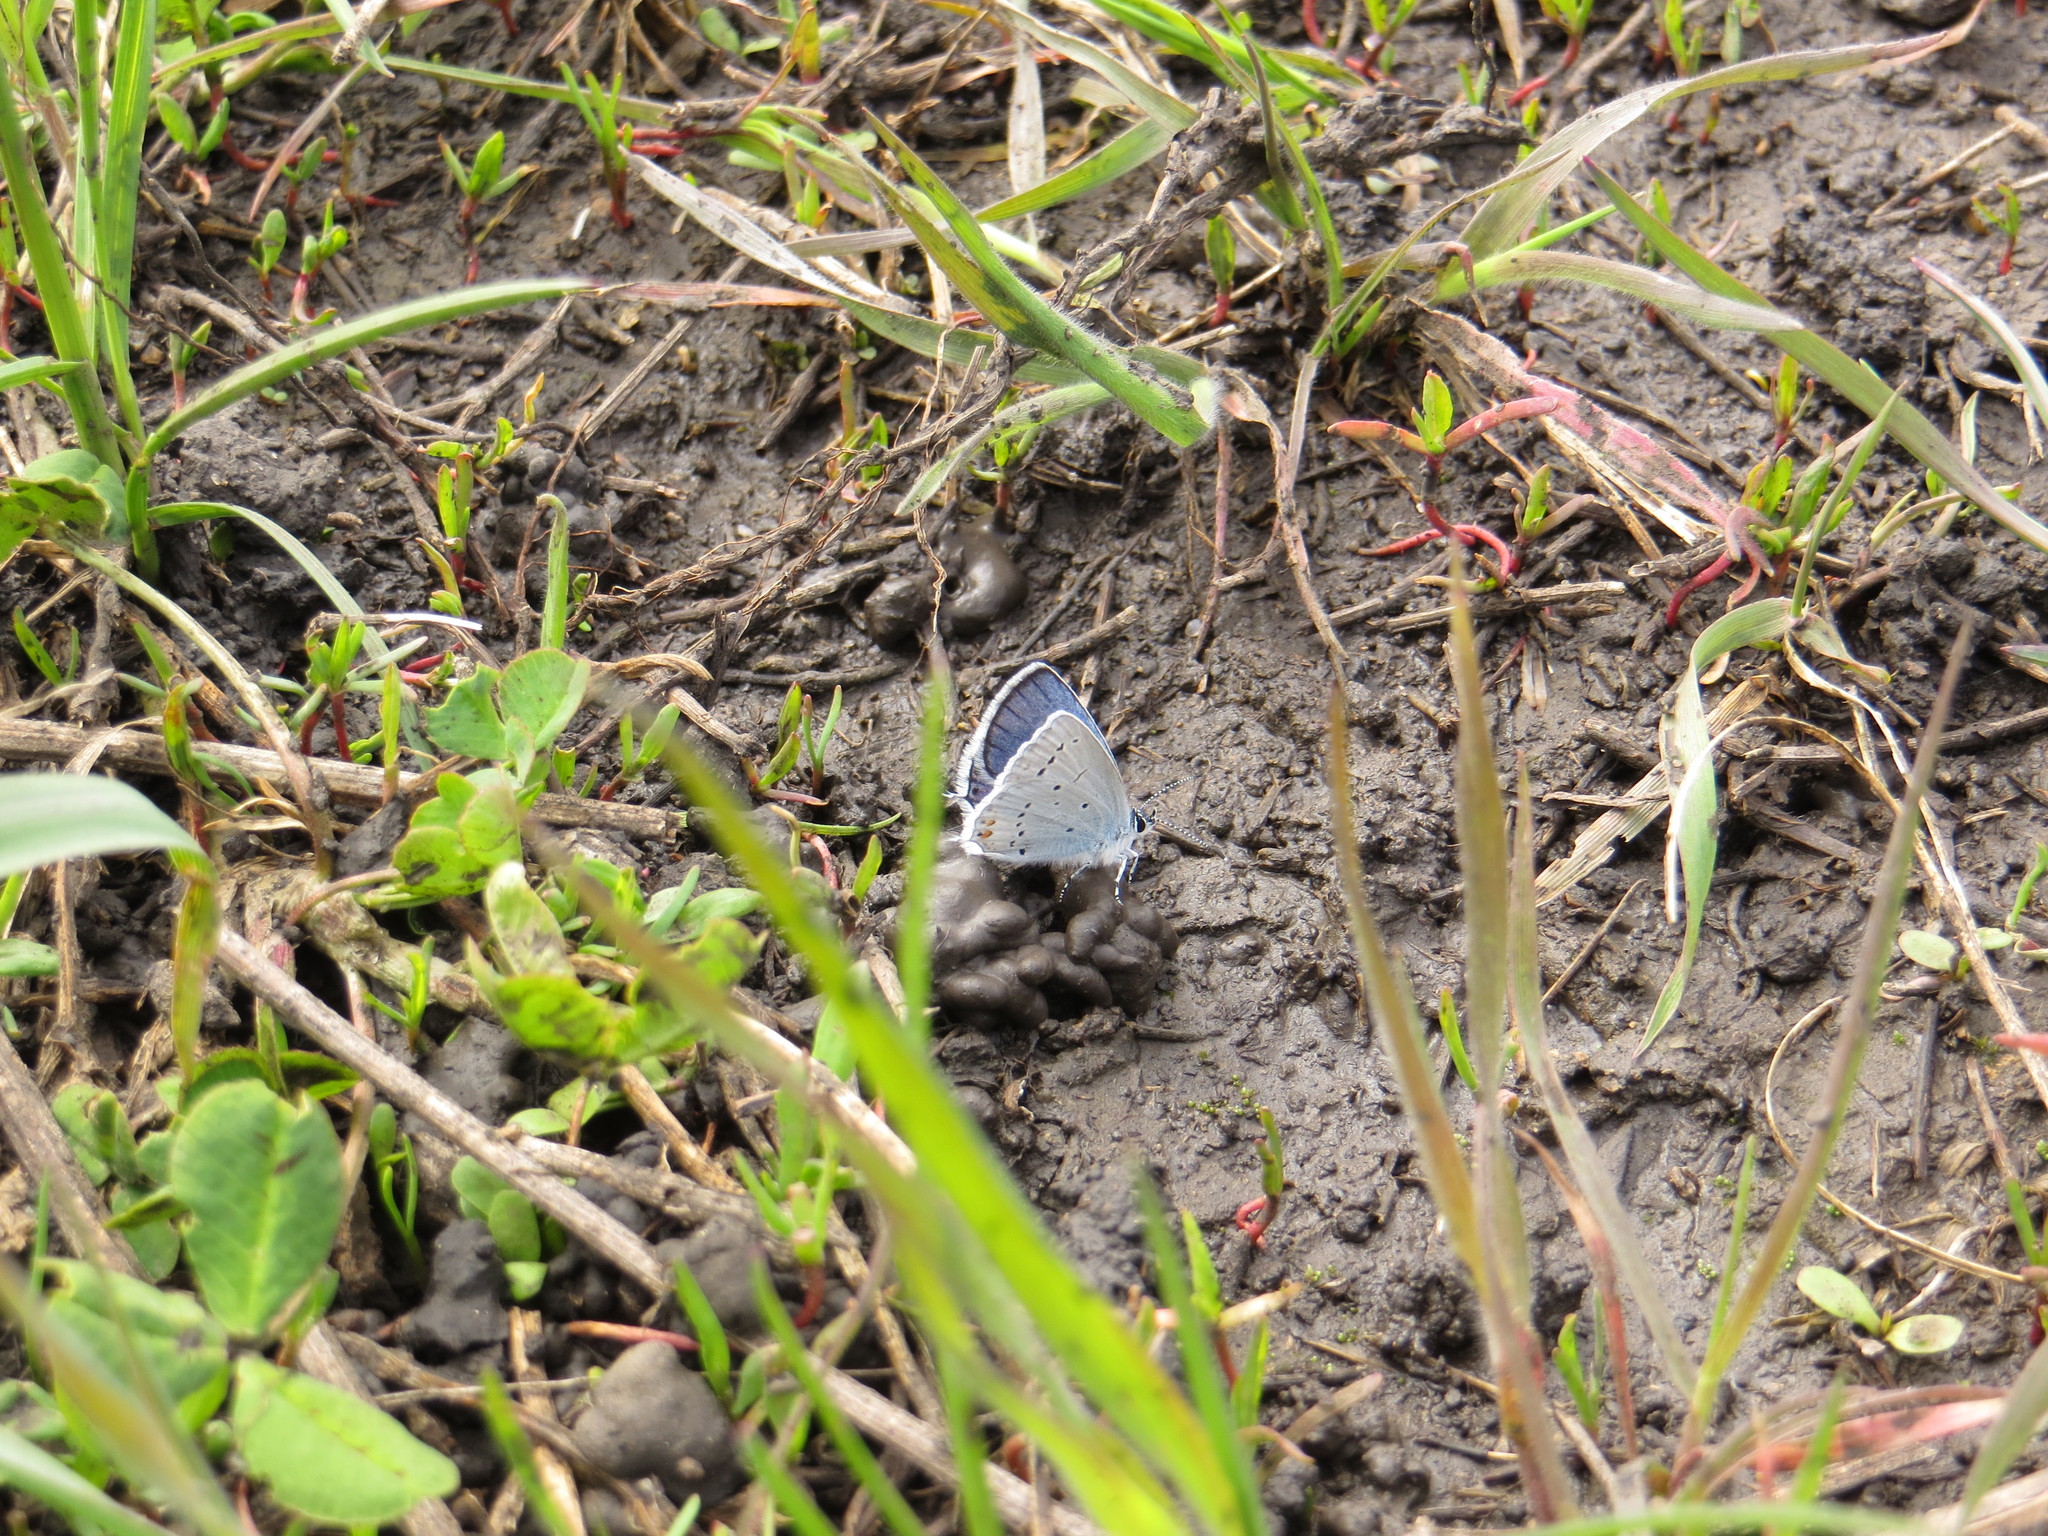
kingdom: Animalia
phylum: Arthropoda
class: Insecta
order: Lepidoptera
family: Lycaenidae
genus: Elkalyce
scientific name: Elkalyce argiades
